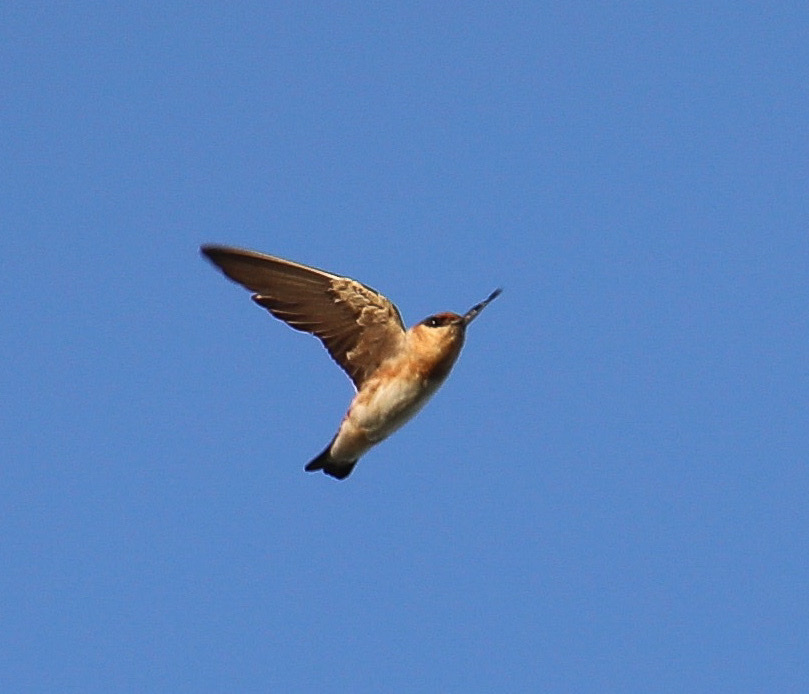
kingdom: Animalia
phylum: Chordata
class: Aves
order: Passeriformes
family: Hirundinidae
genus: Petrochelidon
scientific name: Petrochelidon fulva
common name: Cave swallow
